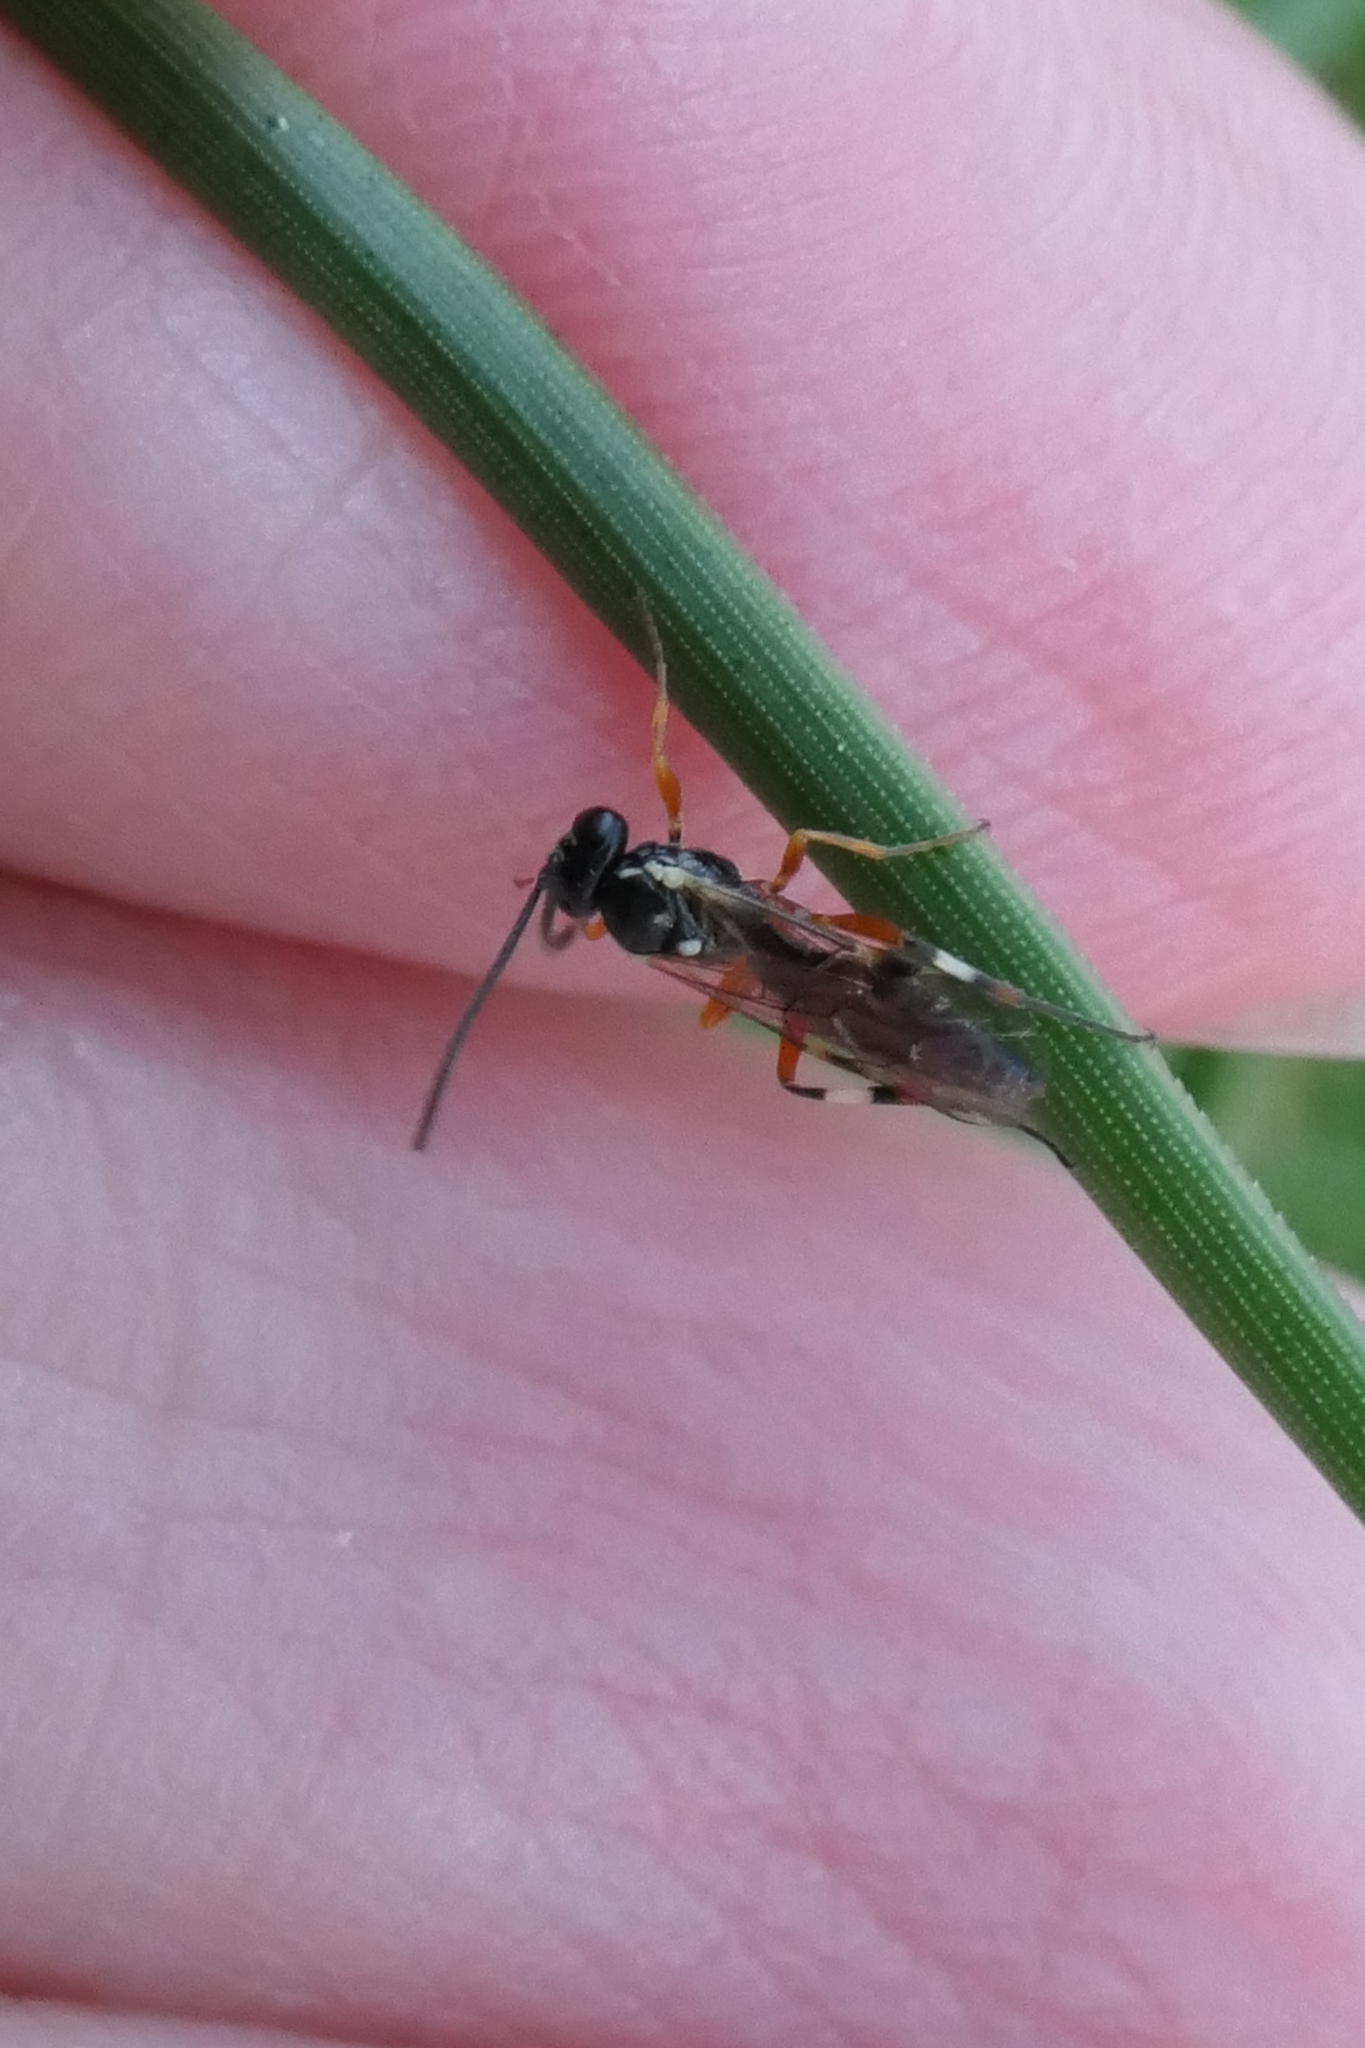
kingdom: Animalia
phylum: Arthropoda
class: Insecta
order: Hymenoptera
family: Ichneumonidae
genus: Diplazon
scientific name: Diplazon laetatorius
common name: Parasitoid wasp
